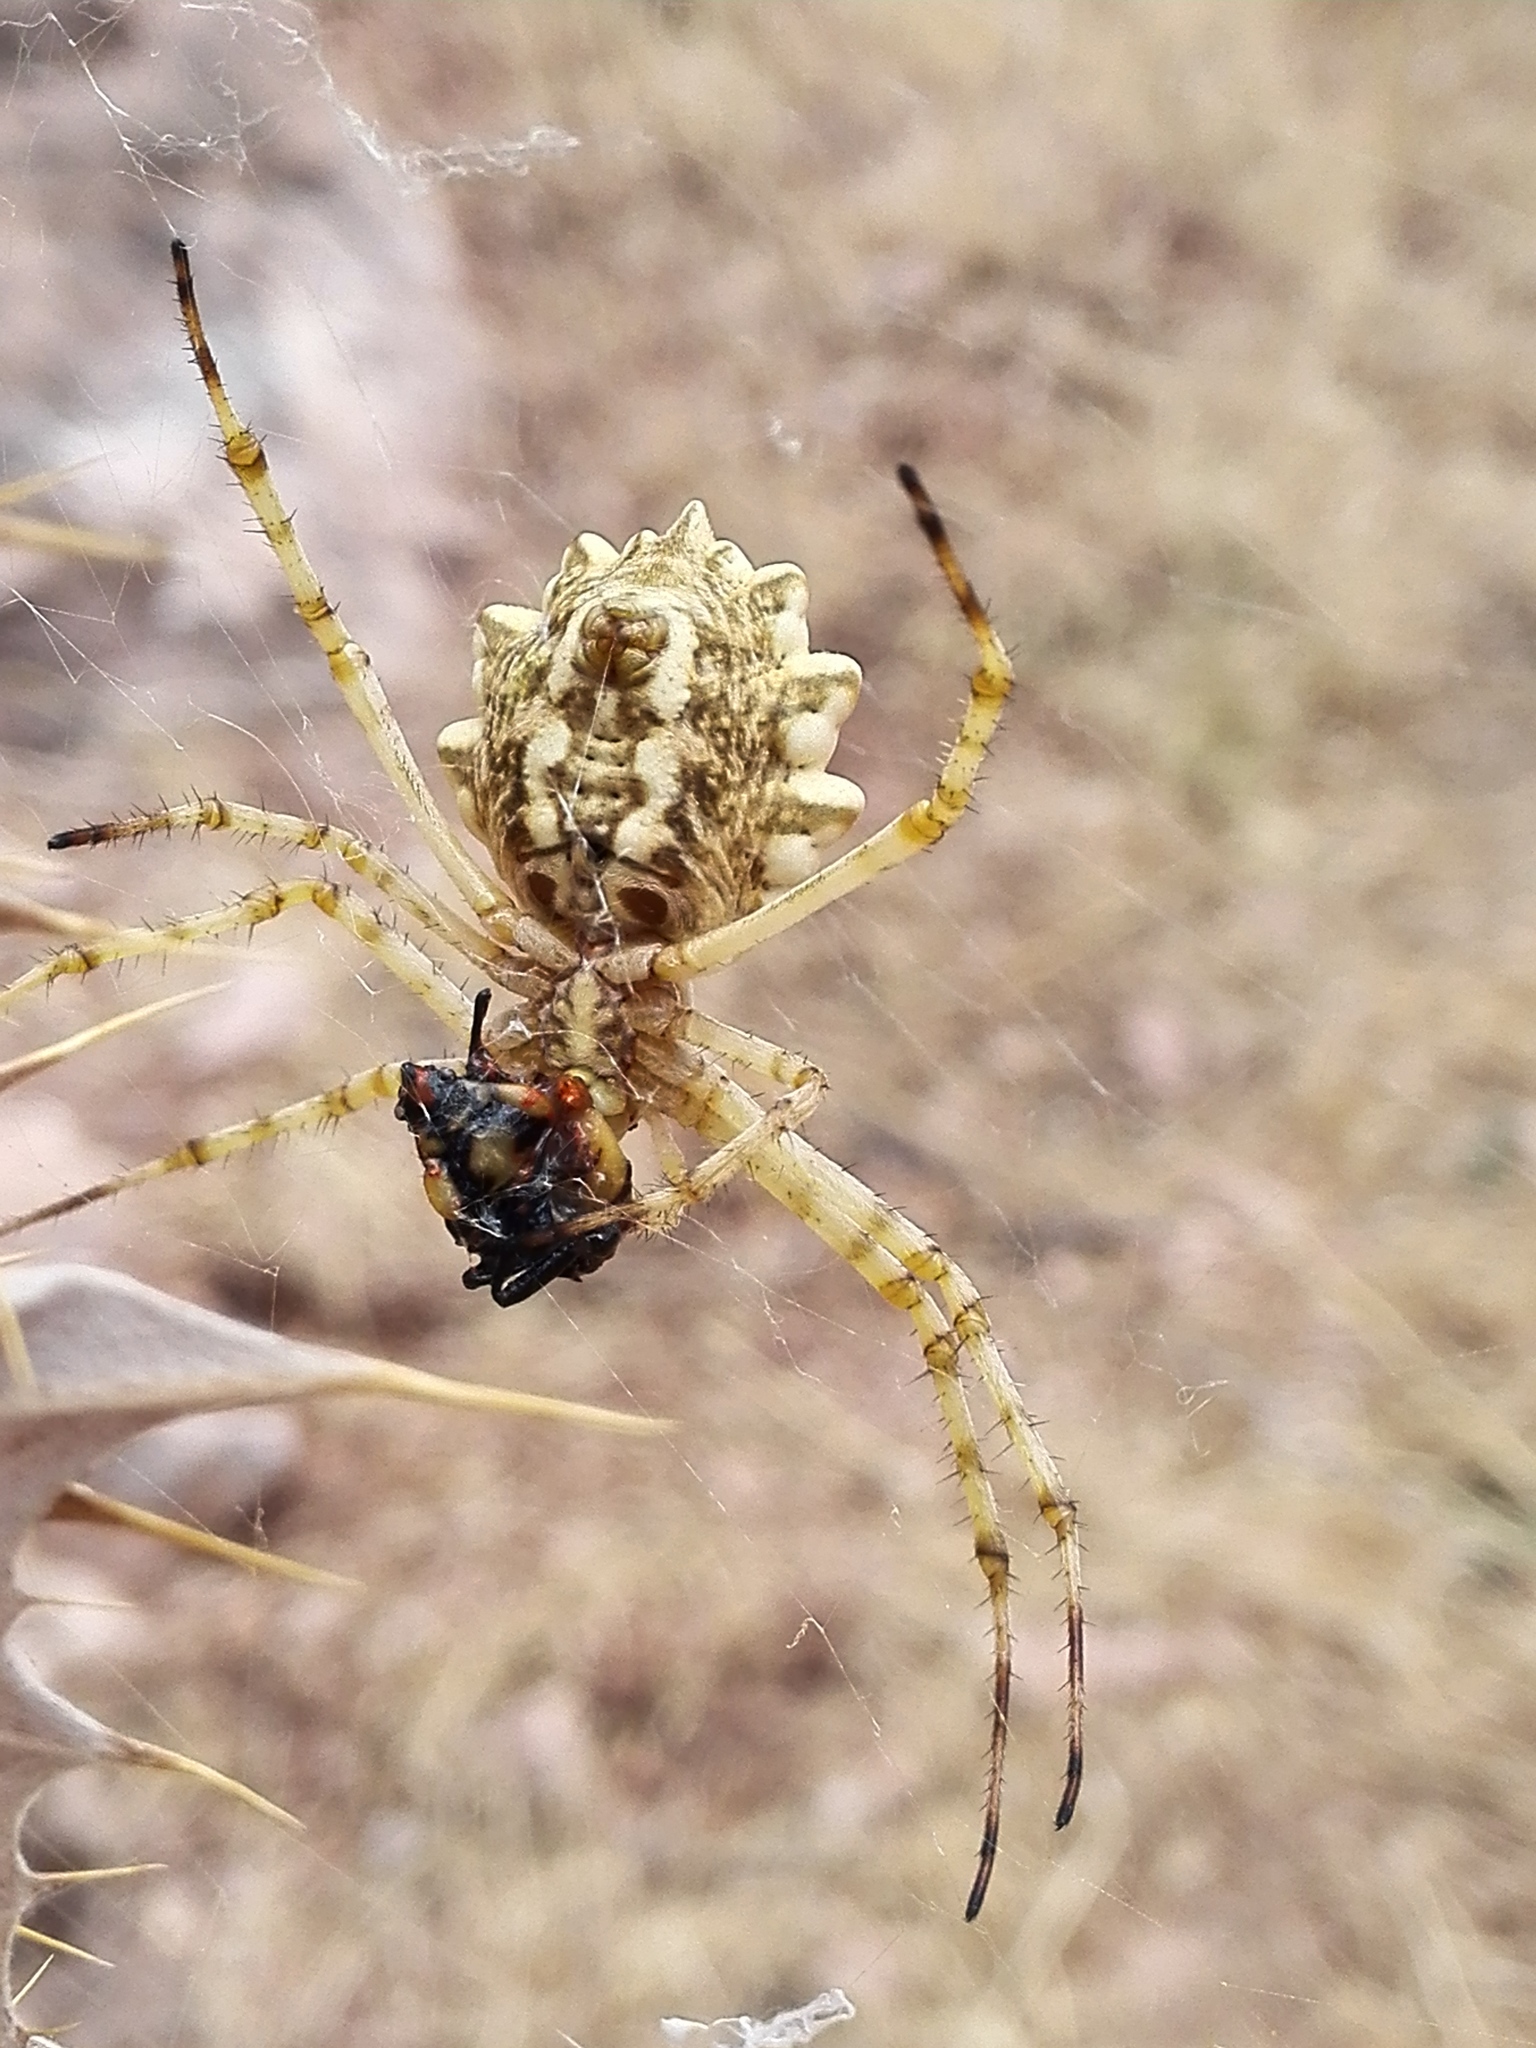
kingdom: Animalia
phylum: Arthropoda
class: Arachnida
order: Araneae
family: Araneidae
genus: Argiope
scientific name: Argiope lobata
